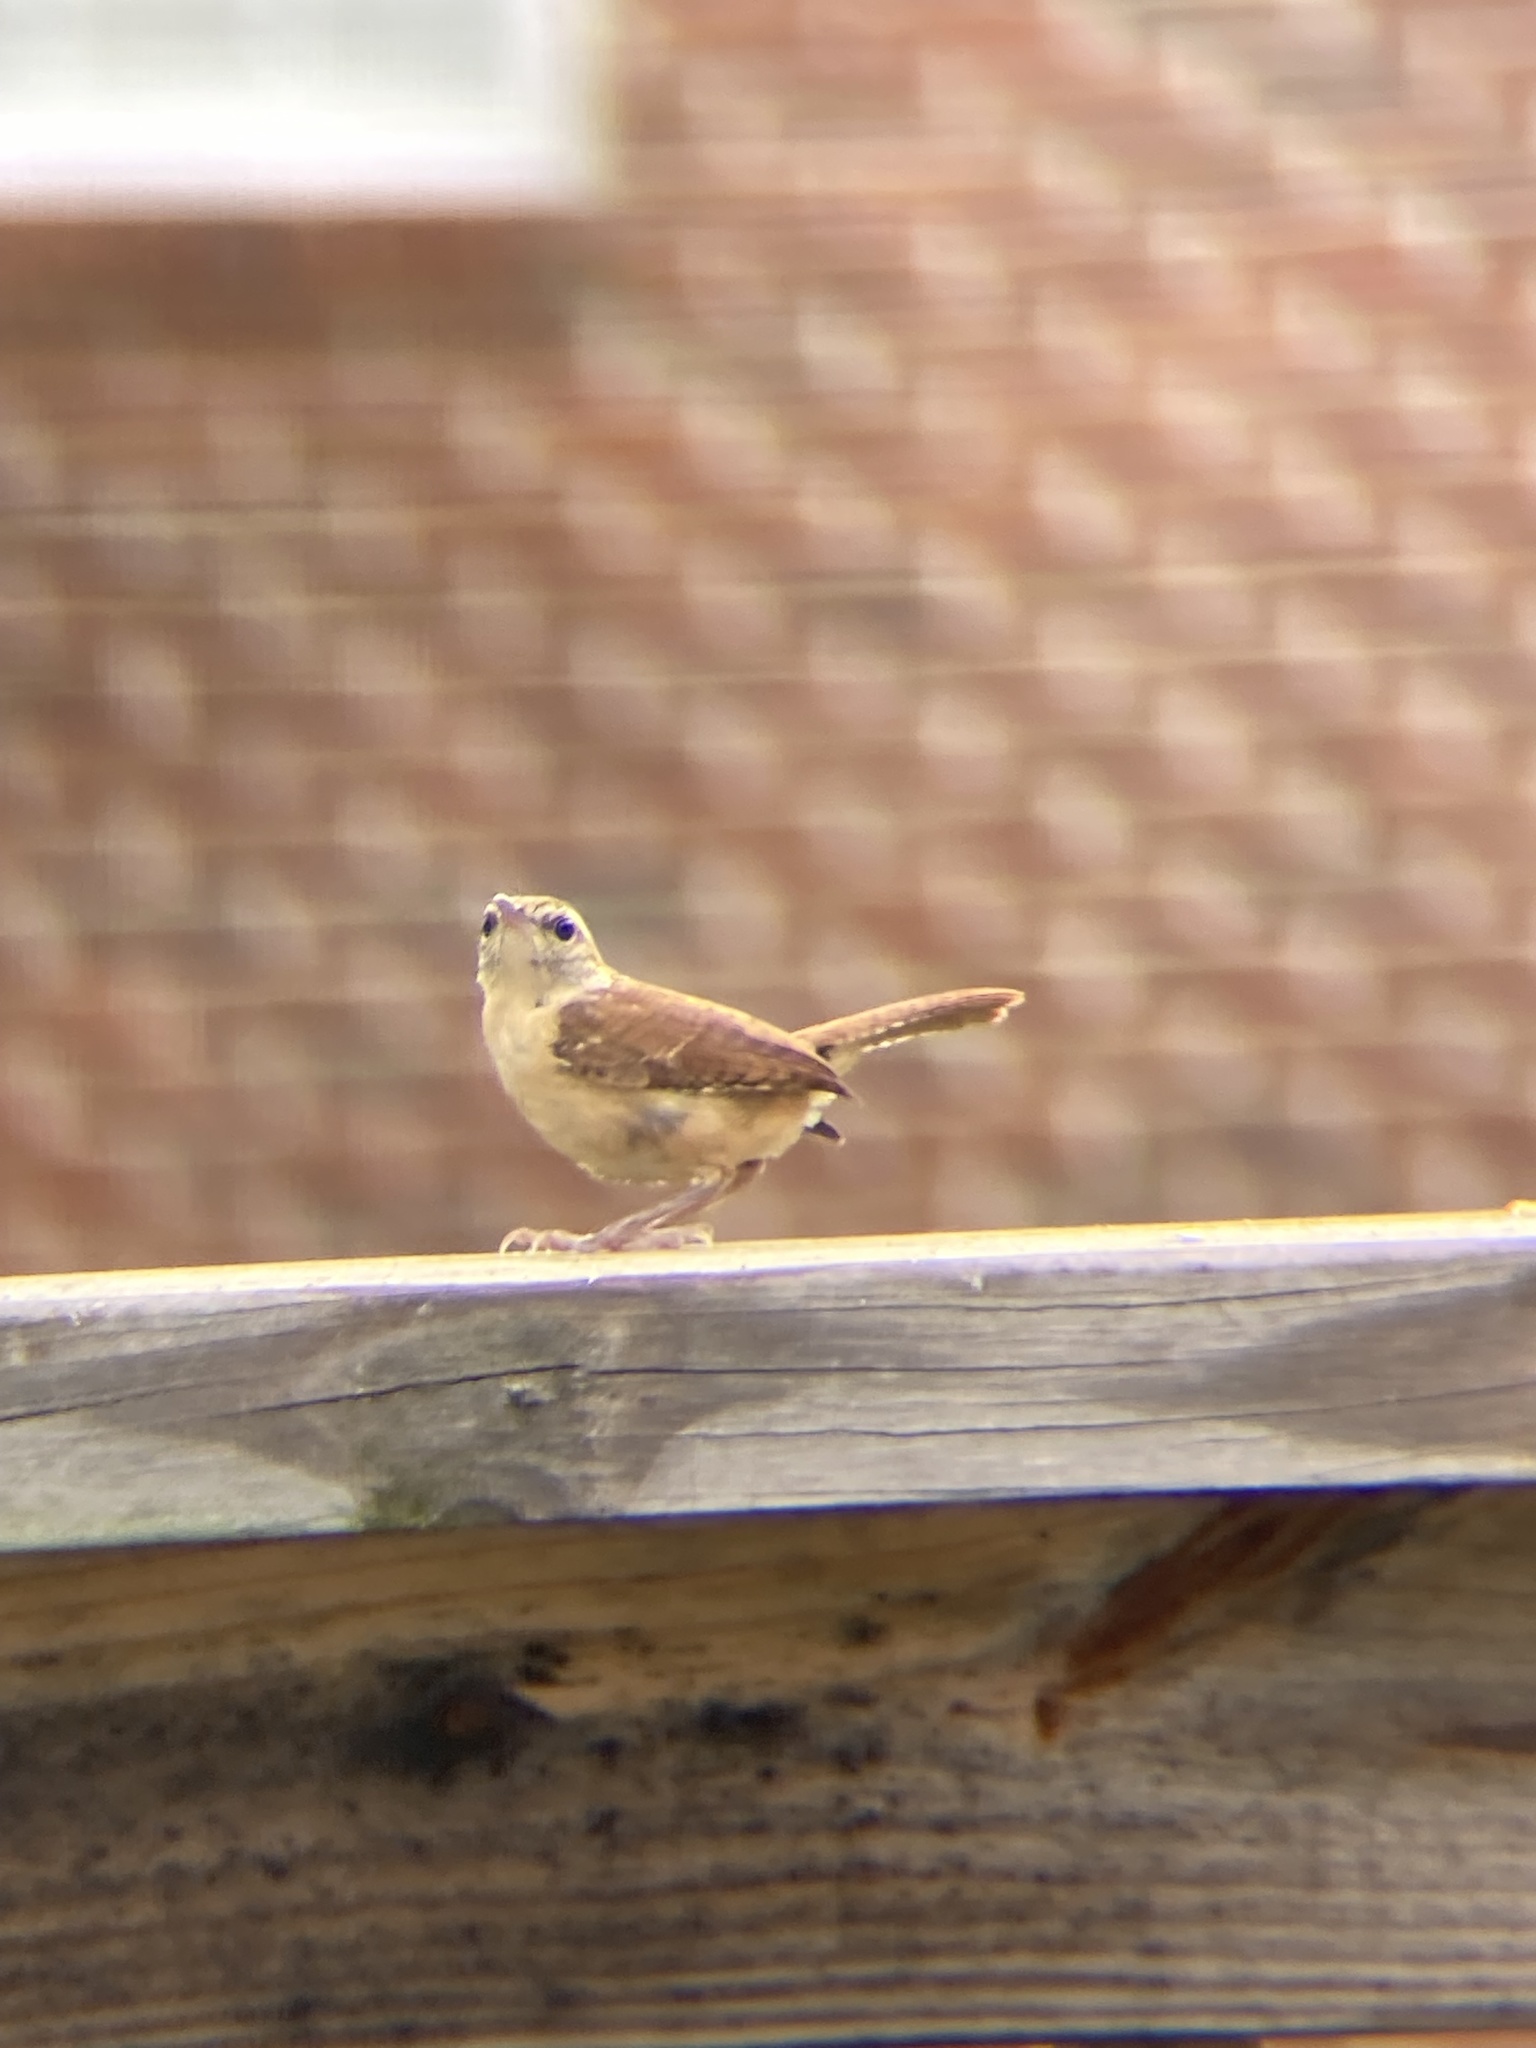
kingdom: Animalia
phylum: Chordata
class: Aves
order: Passeriformes
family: Troglodytidae
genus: Thryothorus
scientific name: Thryothorus ludovicianus
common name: Carolina wren
